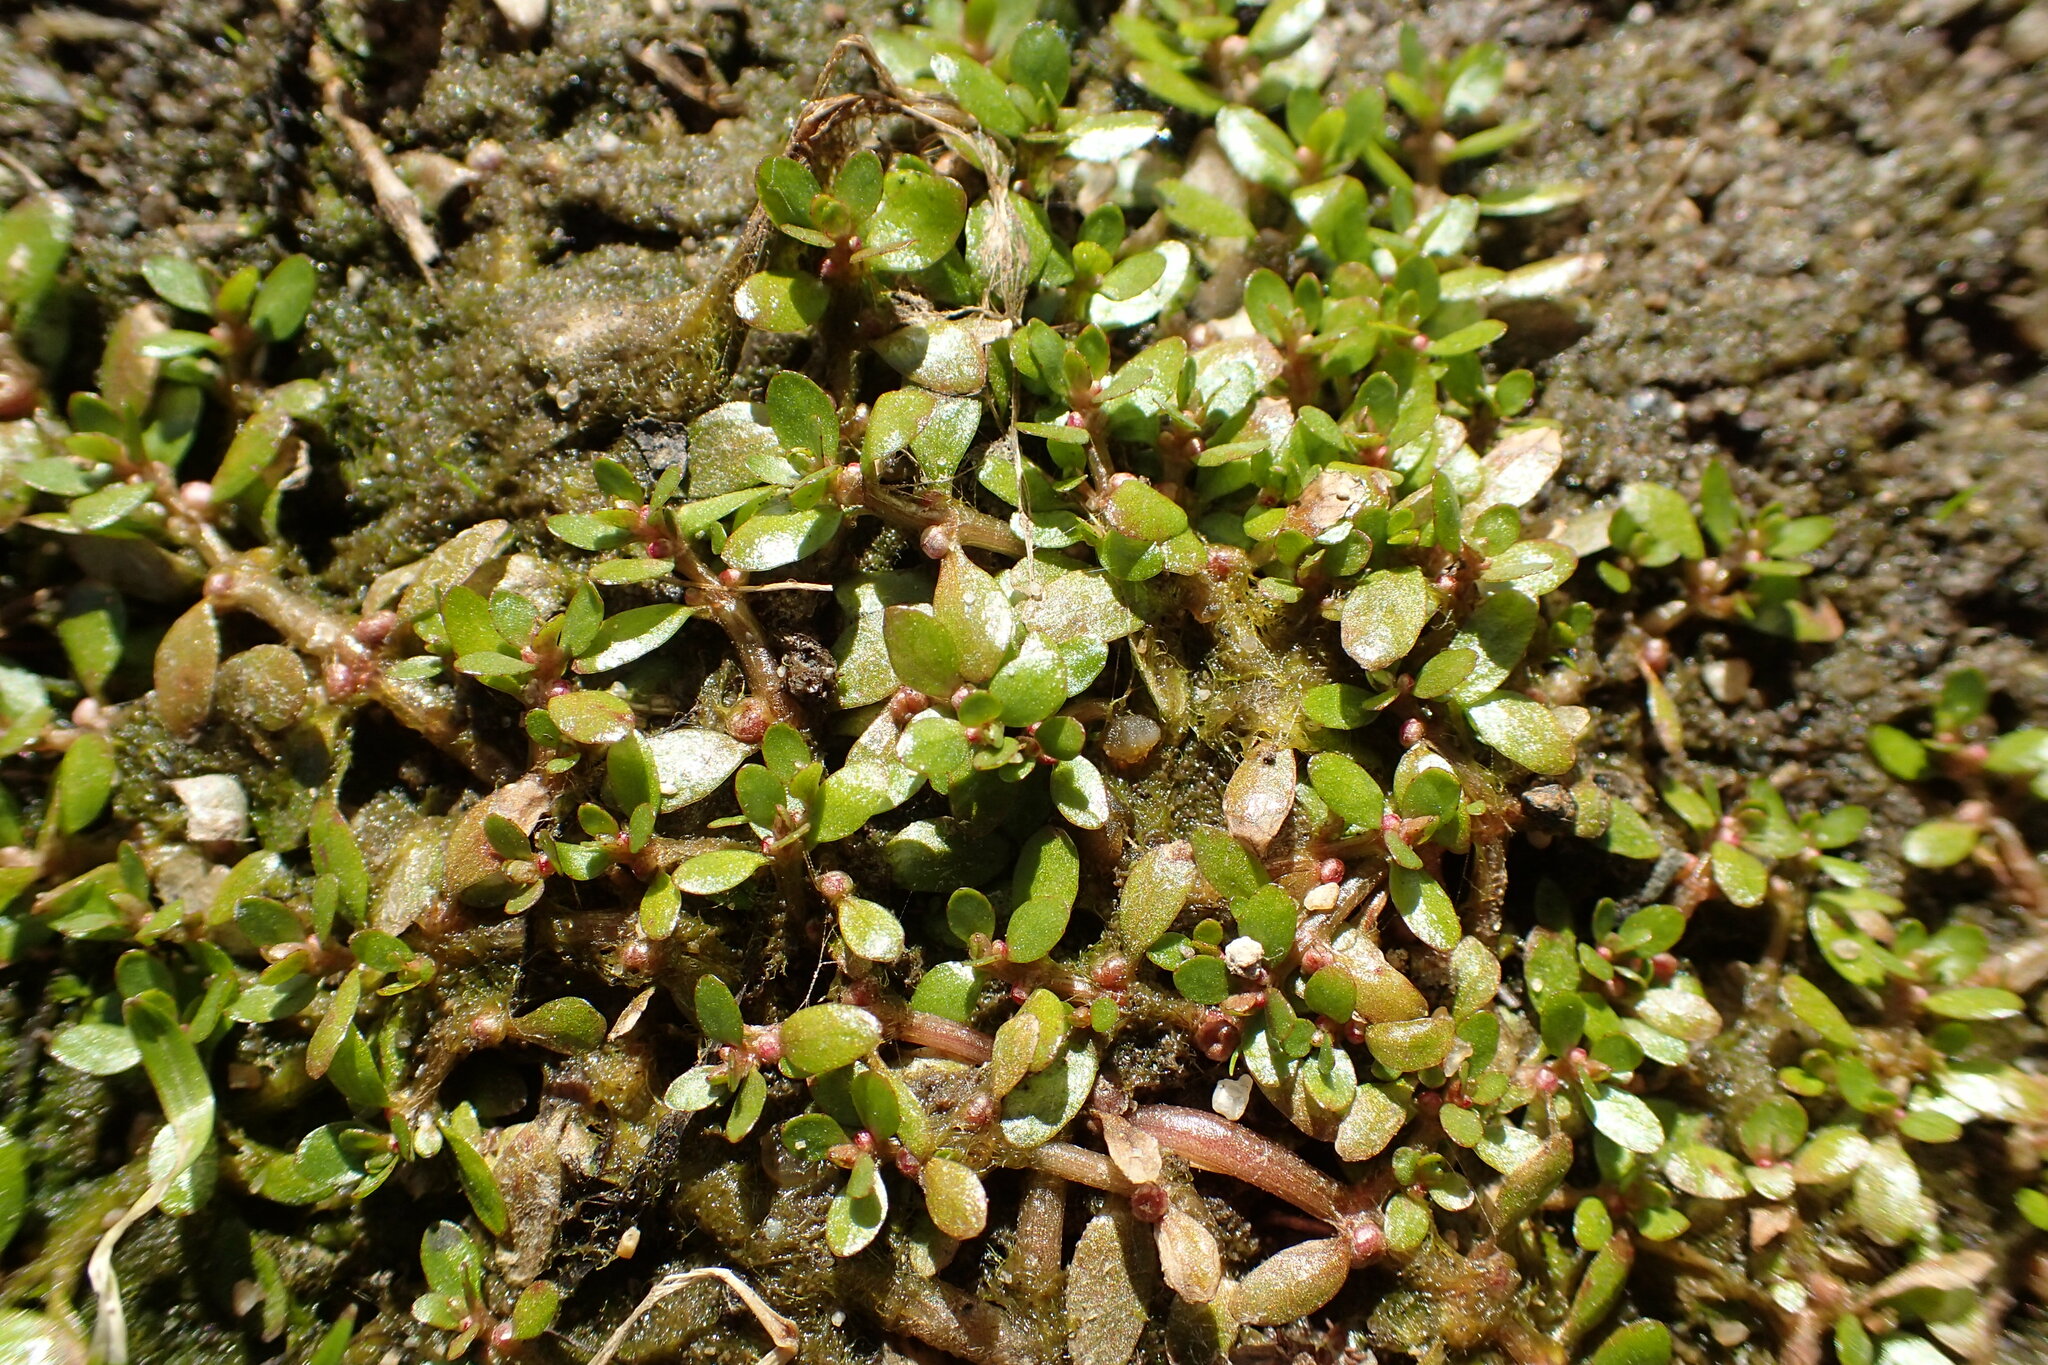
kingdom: Plantae
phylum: Tracheophyta
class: Magnoliopsida
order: Malpighiales
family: Elatinaceae
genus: Elatine
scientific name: Elatine americana
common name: American waterwort
